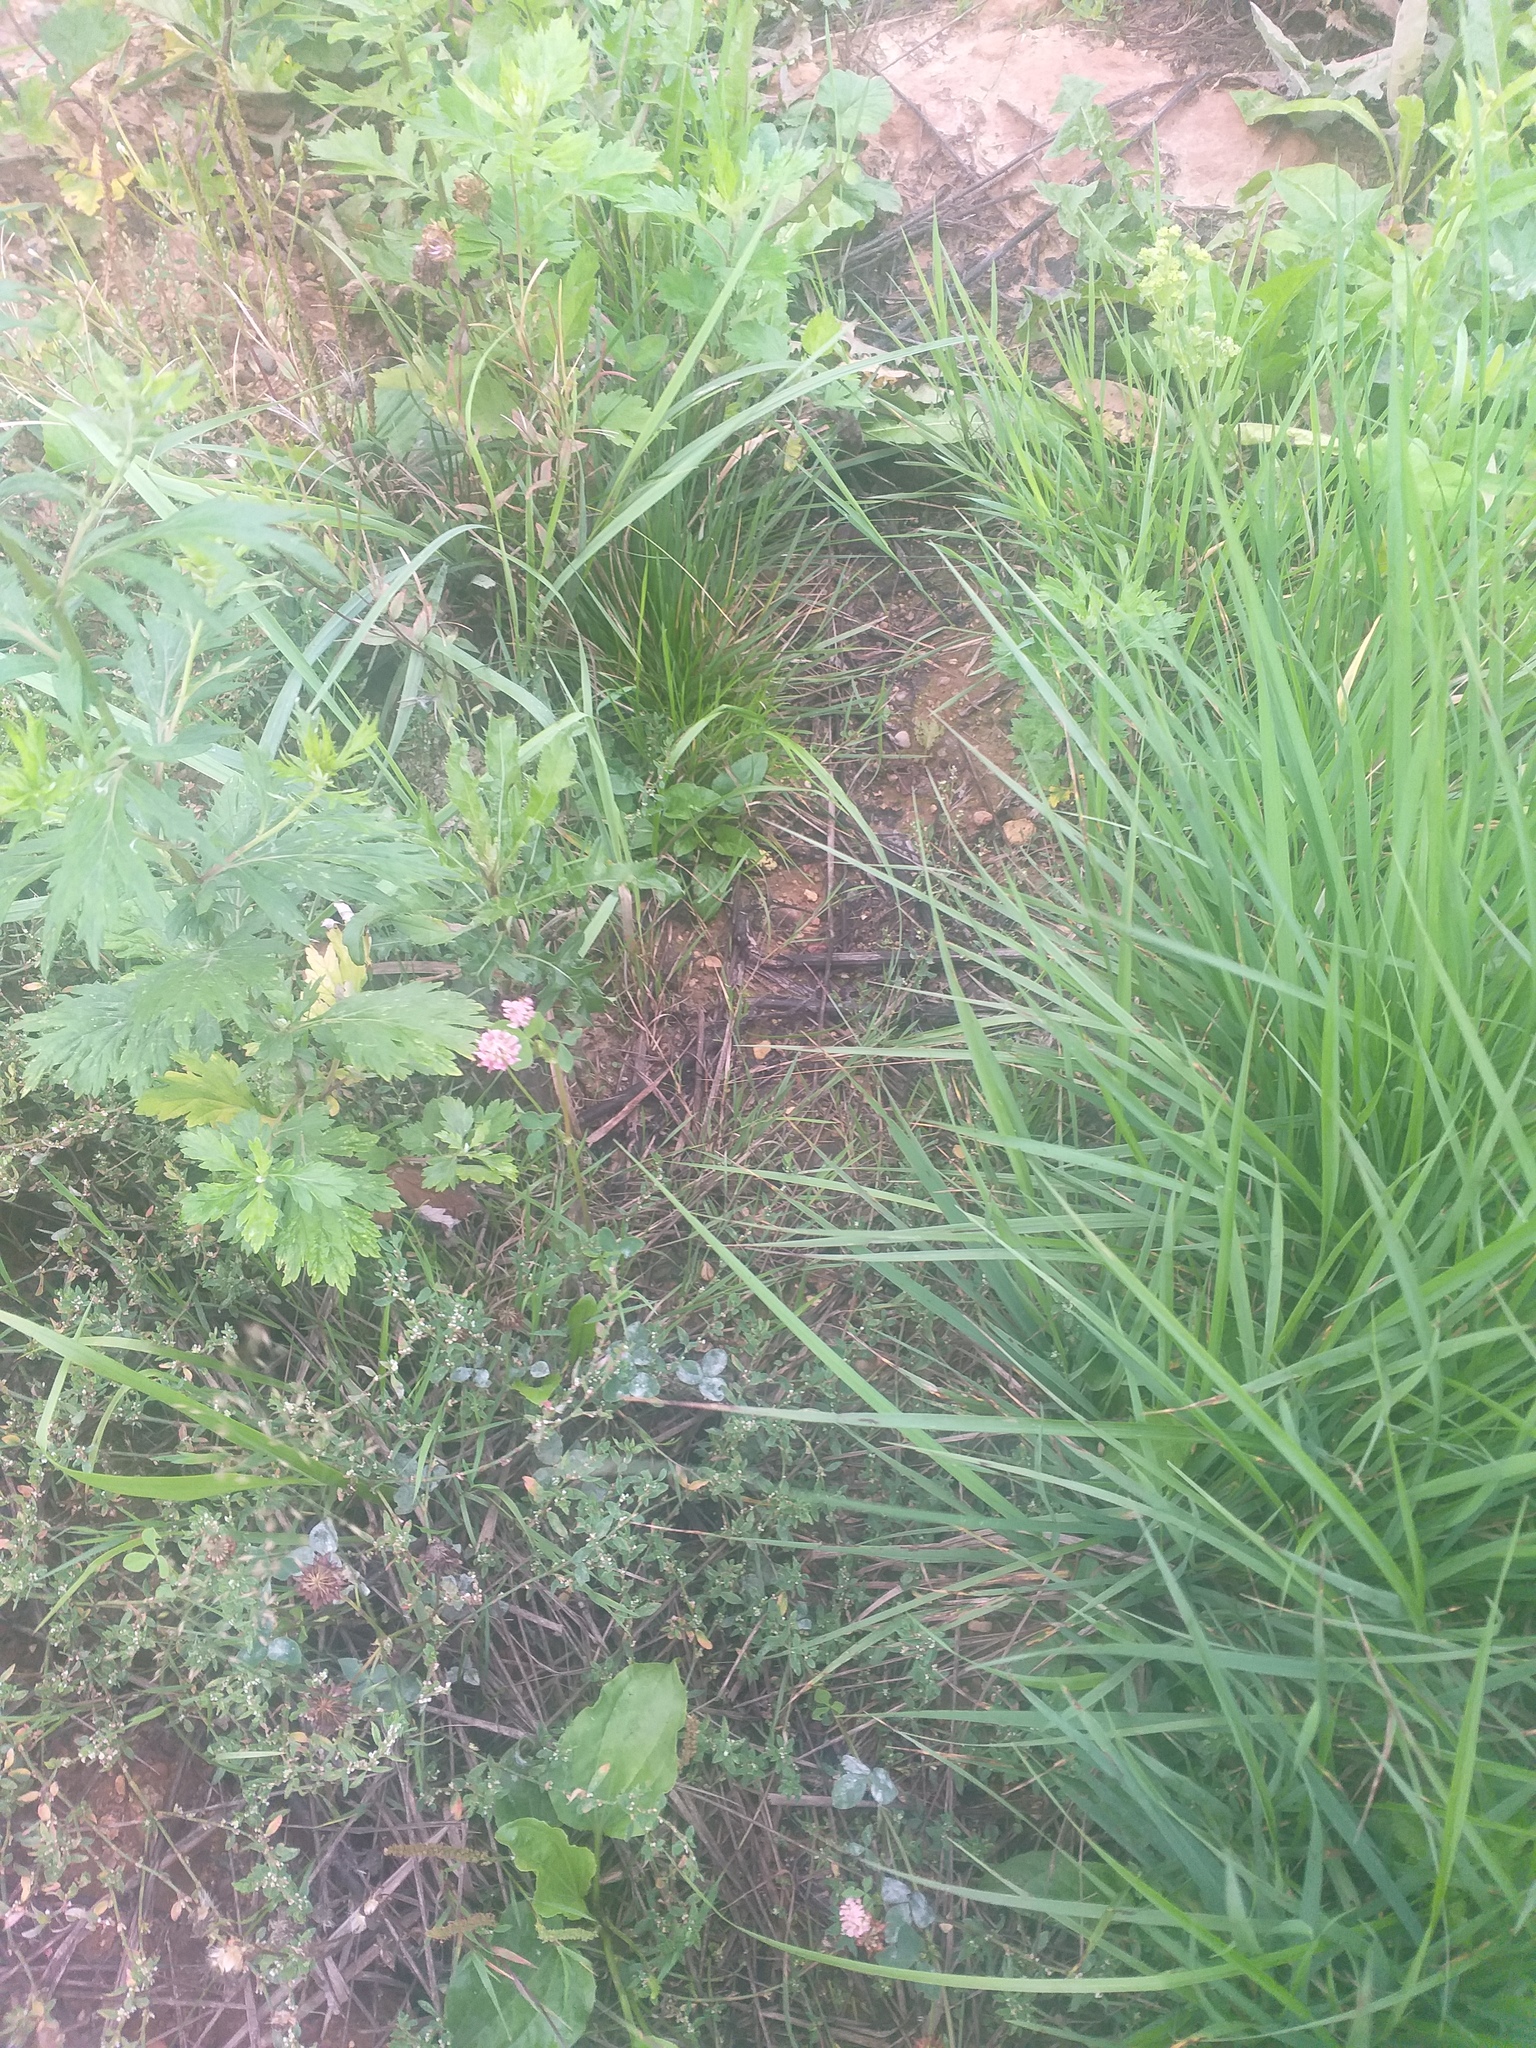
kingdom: Plantae
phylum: Tracheophyta
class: Magnoliopsida
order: Fabales
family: Fabaceae
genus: Trifolium
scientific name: Trifolium hybridum
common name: Alsike clover
